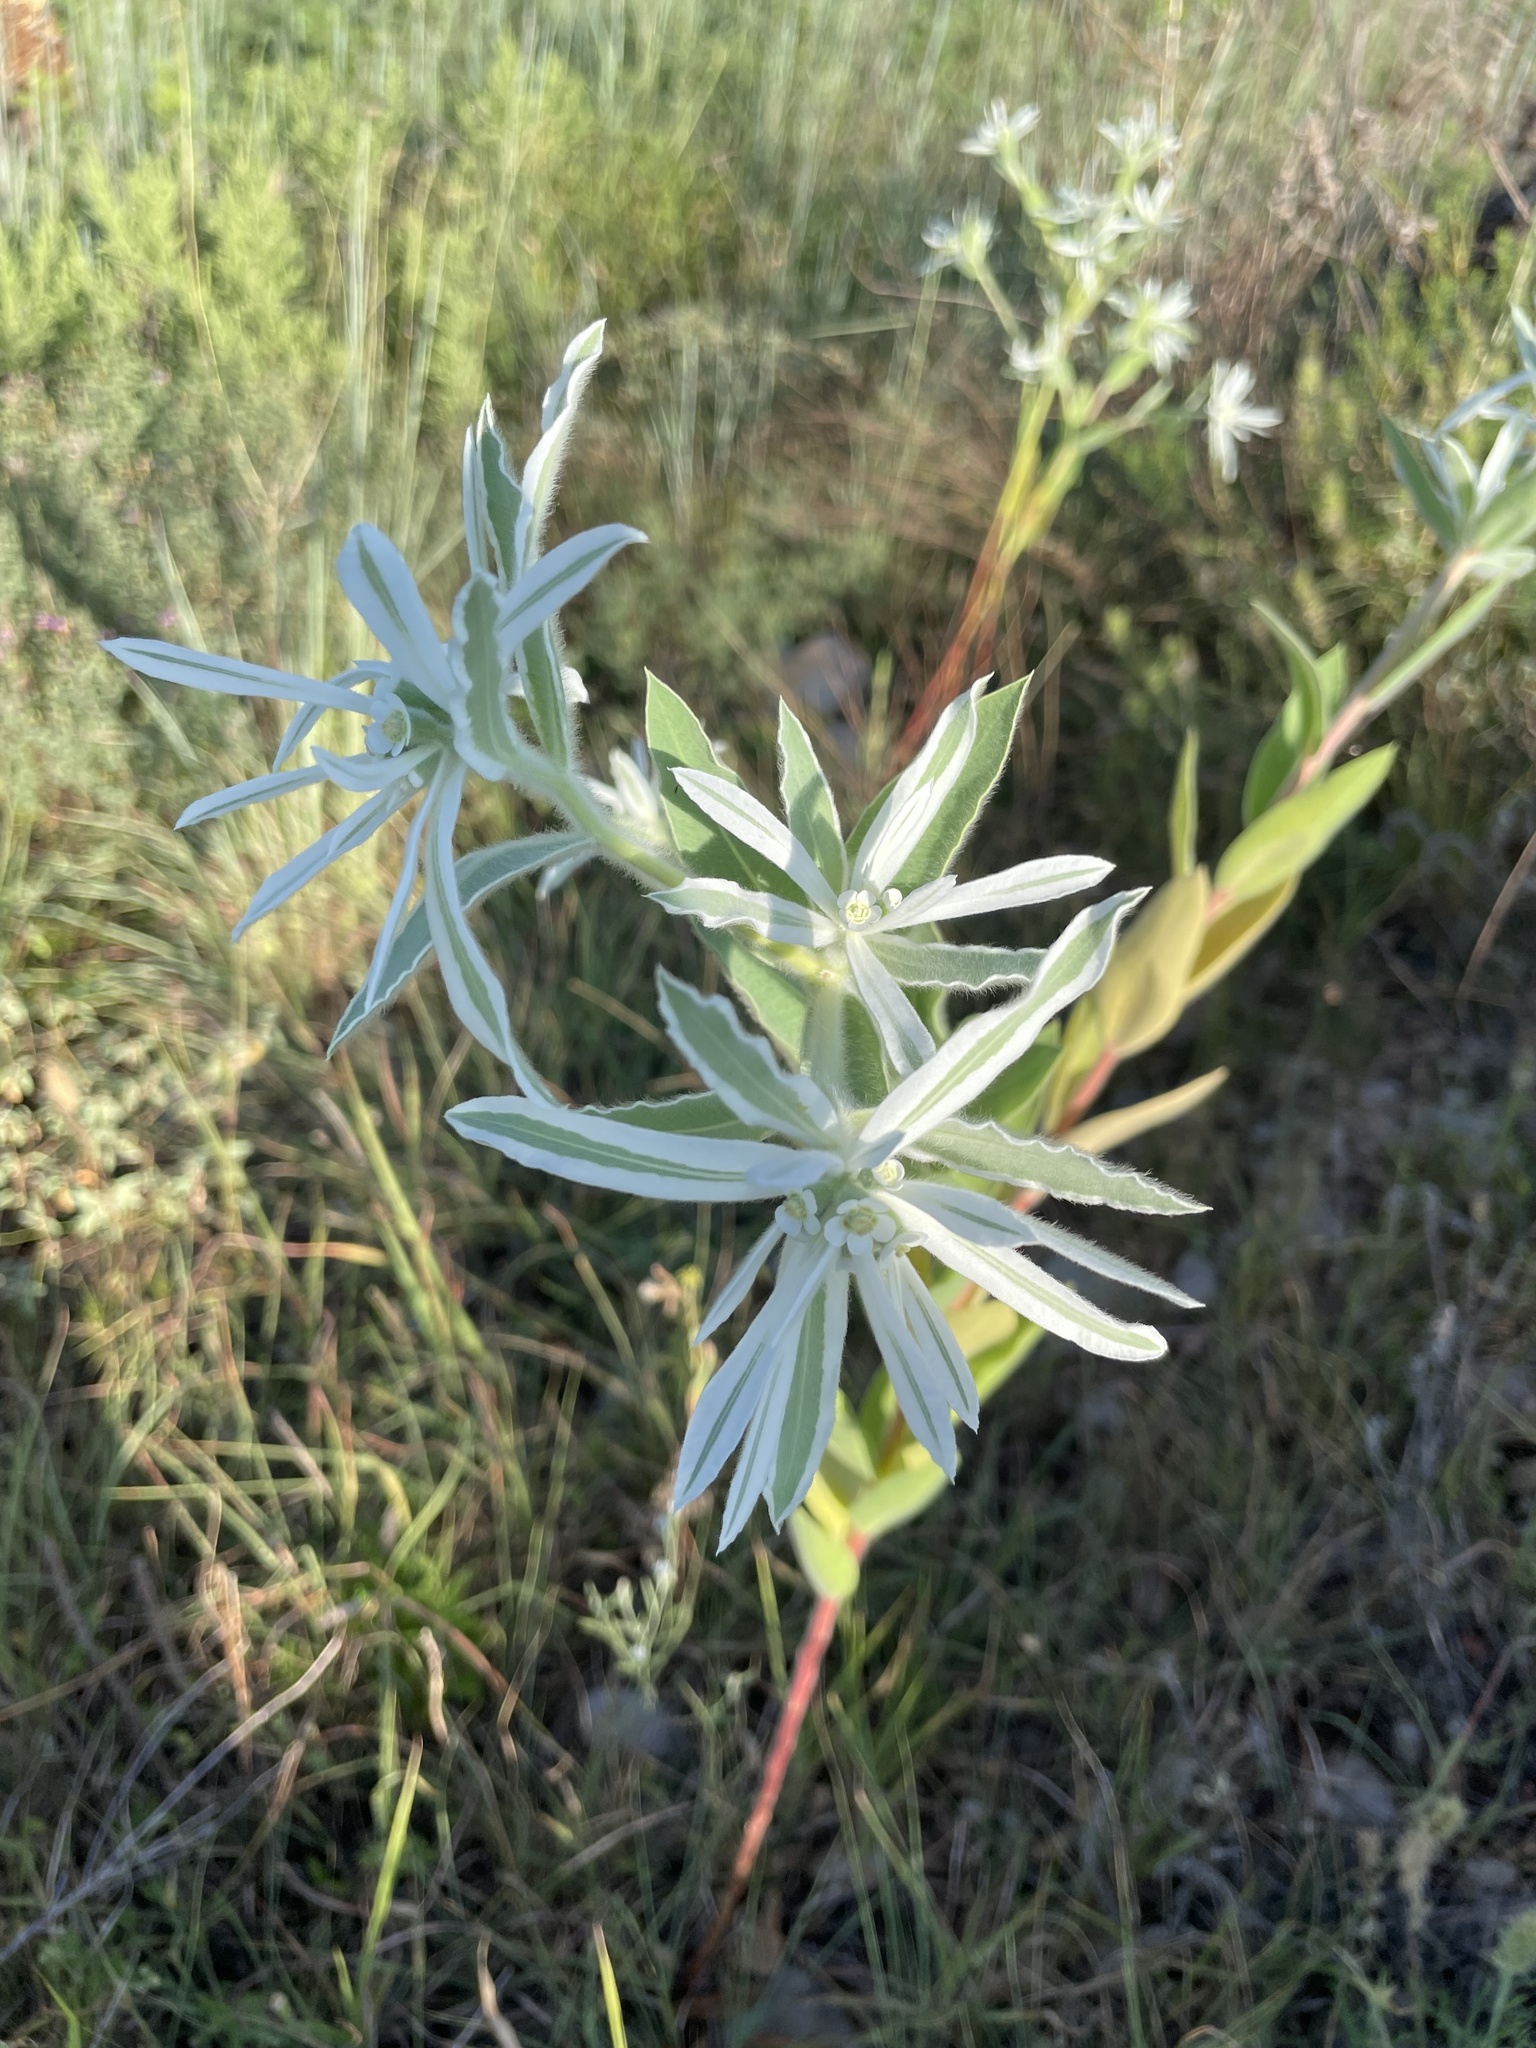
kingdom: Plantae
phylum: Tracheophyta
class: Magnoliopsida
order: Malpighiales
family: Euphorbiaceae
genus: Euphorbia
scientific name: Euphorbia bicolor
